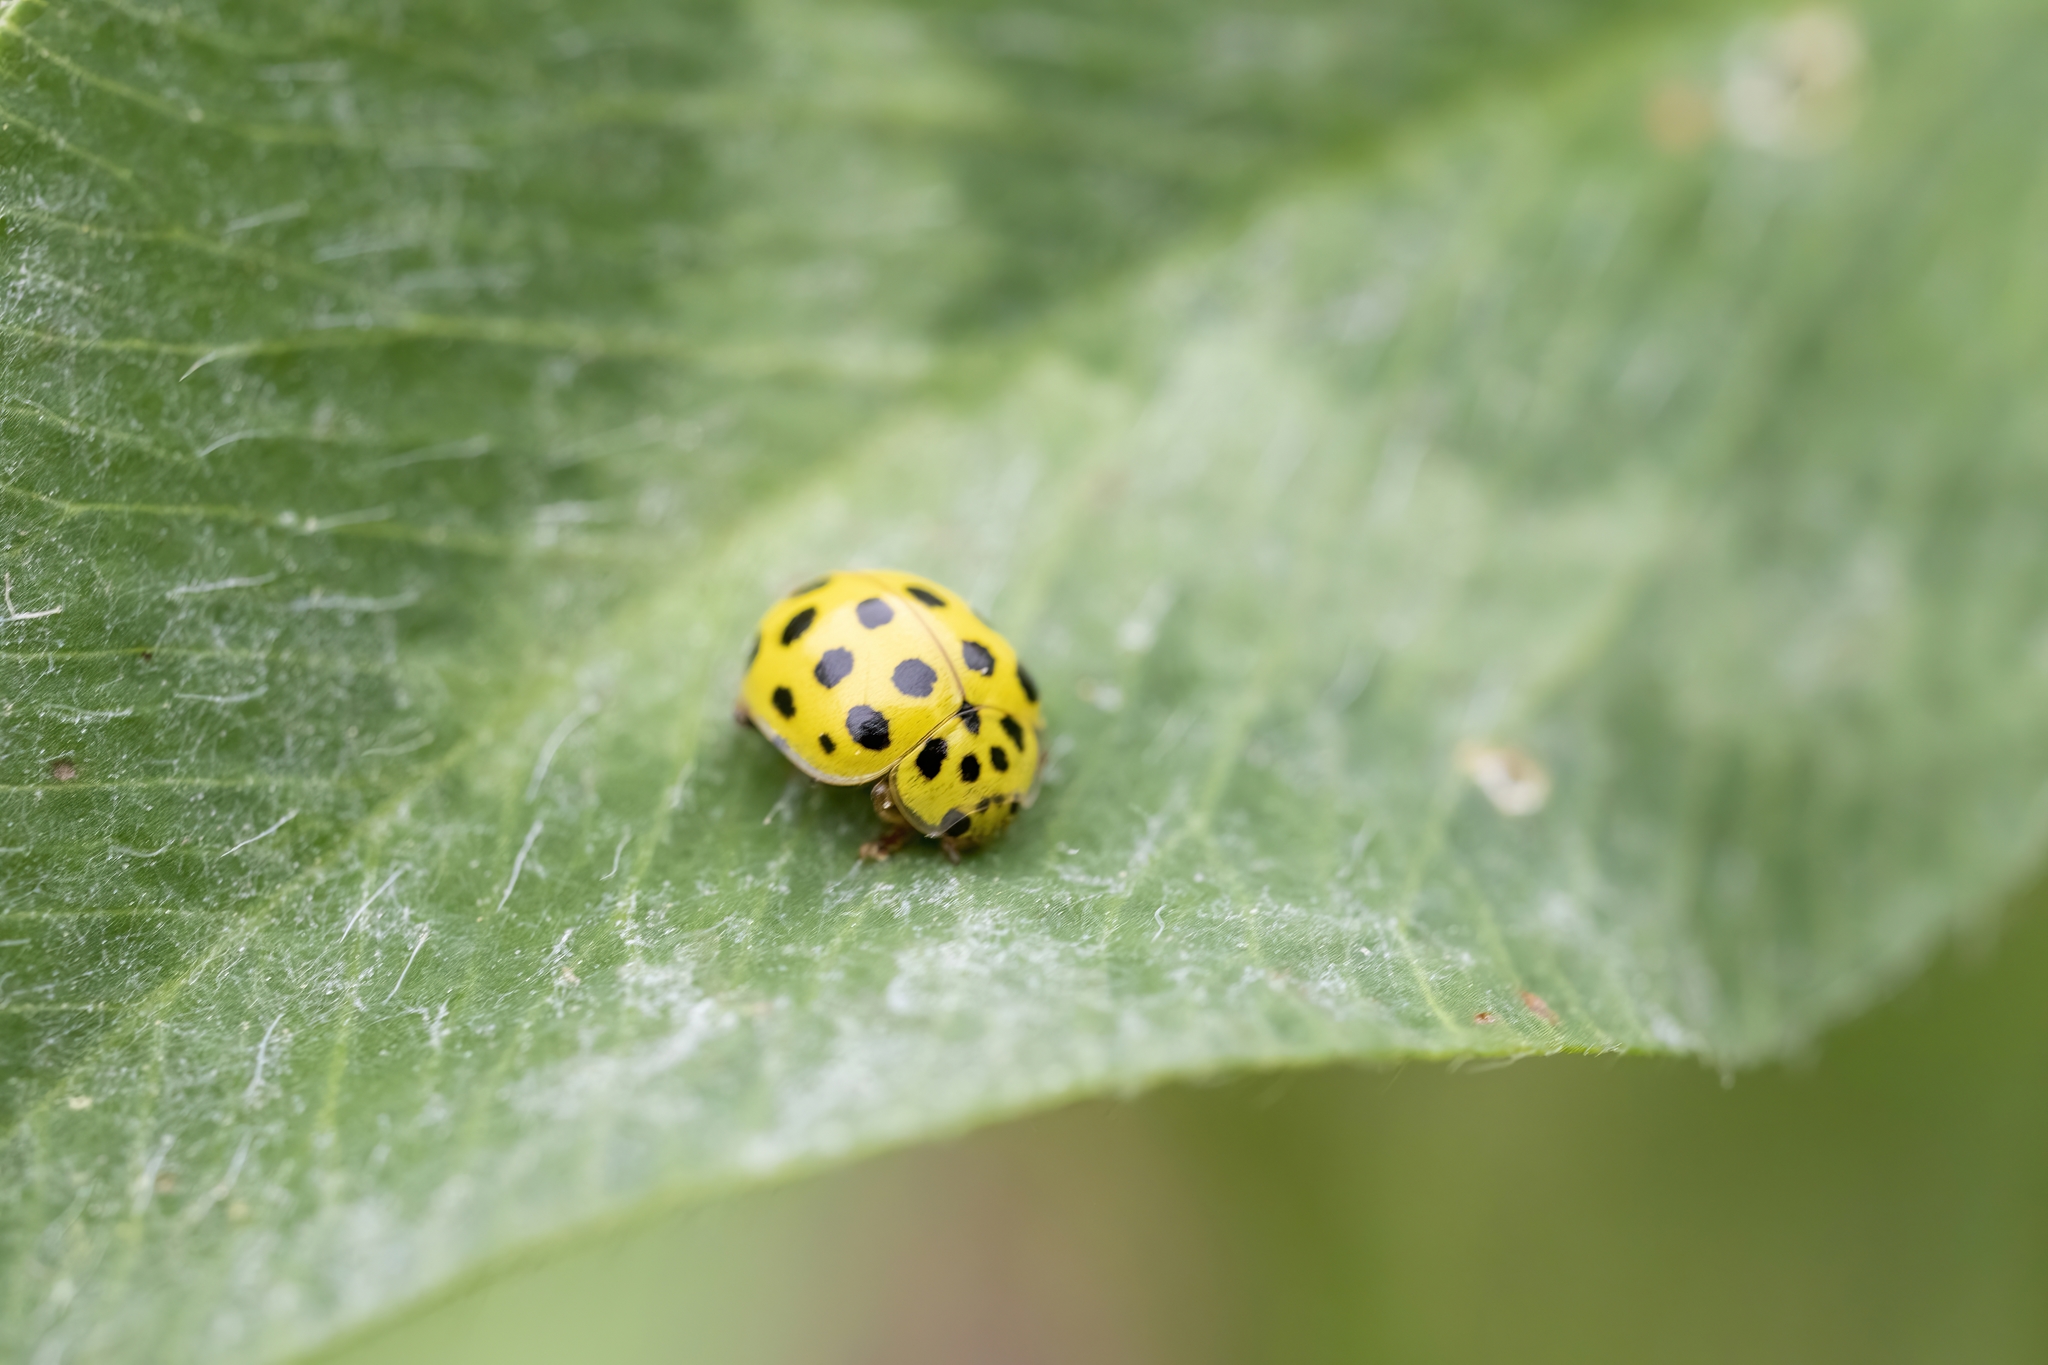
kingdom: Animalia
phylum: Arthropoda
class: Insecta
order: Coleoptera
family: Coccinellidae
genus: Psyllobora
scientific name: Psyllobora vigintiduopunctata
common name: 22-spot ladybird
